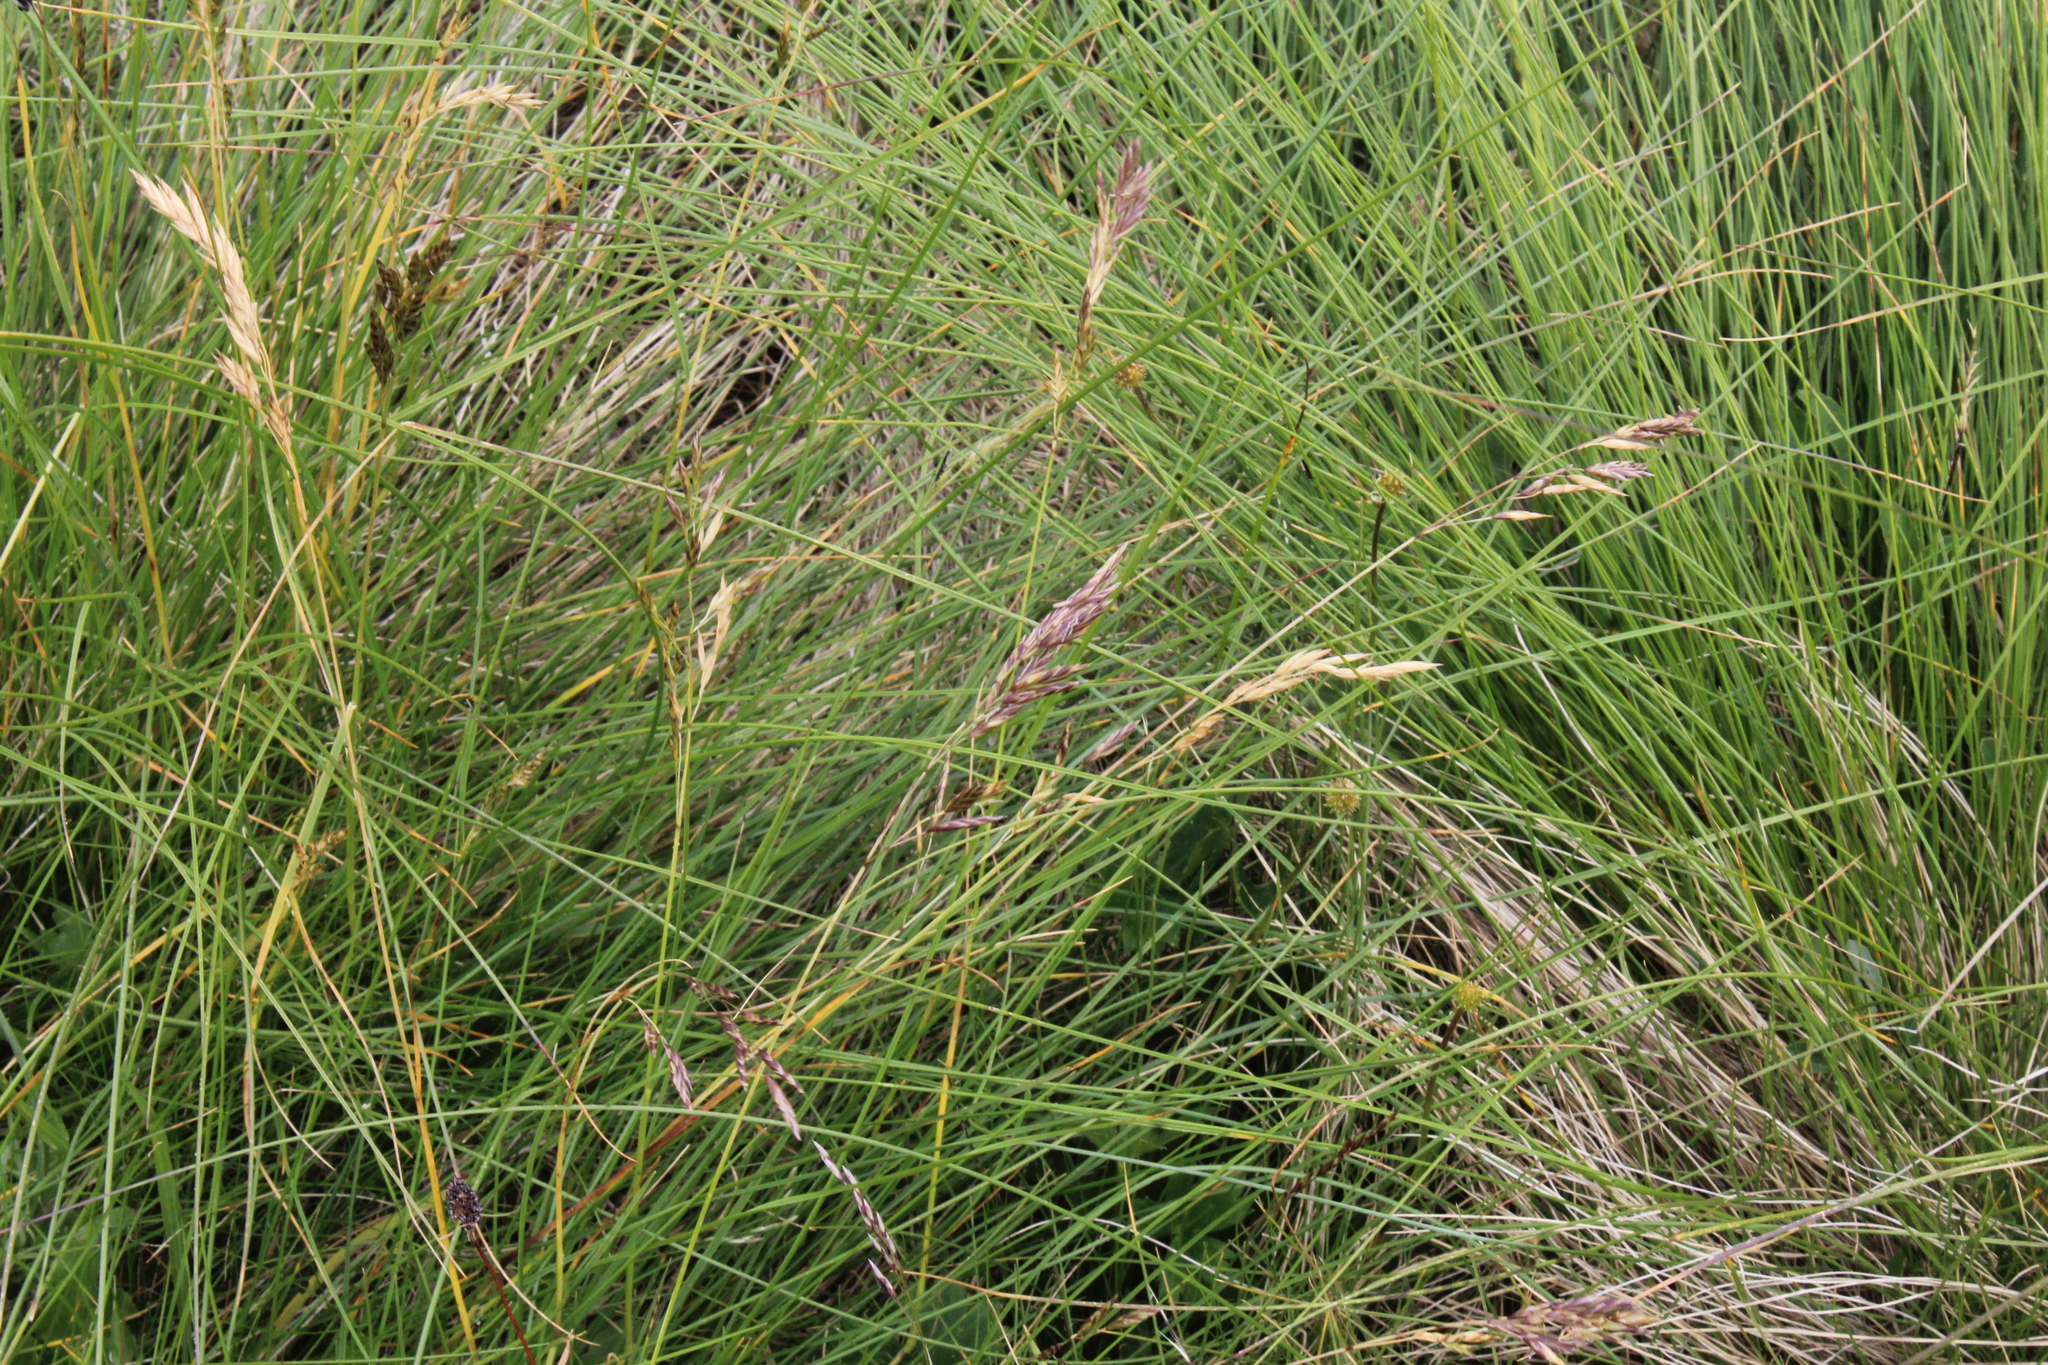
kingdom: Plantae
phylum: Tracheophyta
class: Liliopsida
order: Poales
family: Poaceae
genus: Festuca
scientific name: Festuca varia
